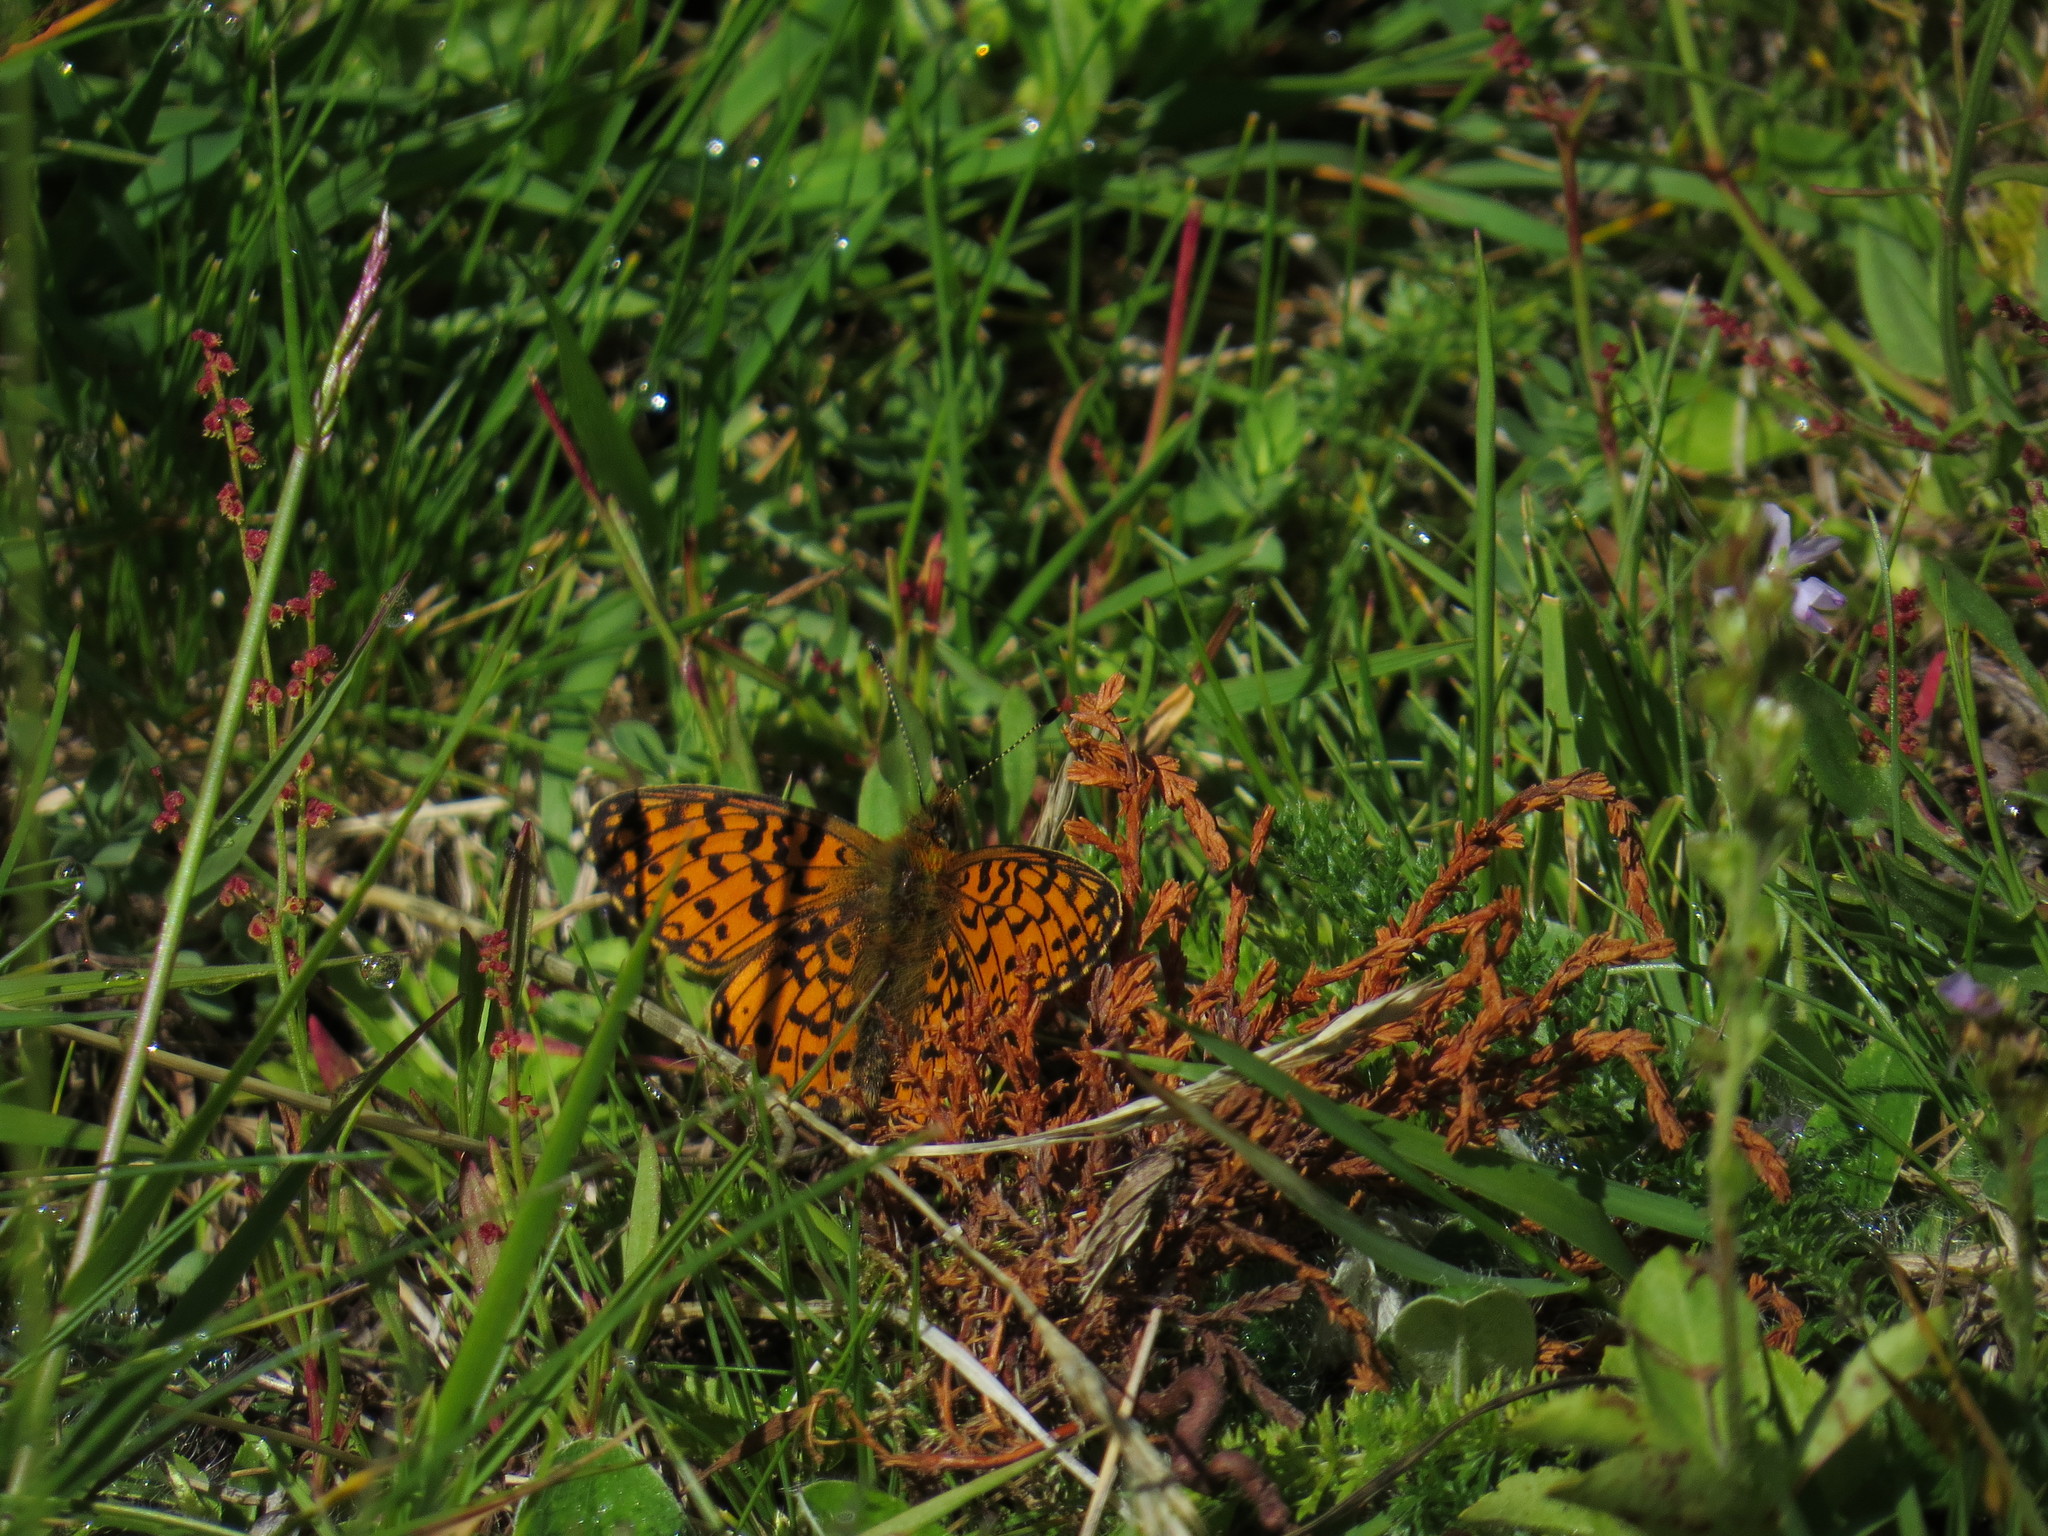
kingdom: Animalia
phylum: Arthropoda
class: Insecta
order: Lepidoptera
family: Nymphalidae
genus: Boloria
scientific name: Boloria selene
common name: Small pearl-bordered fritillary
